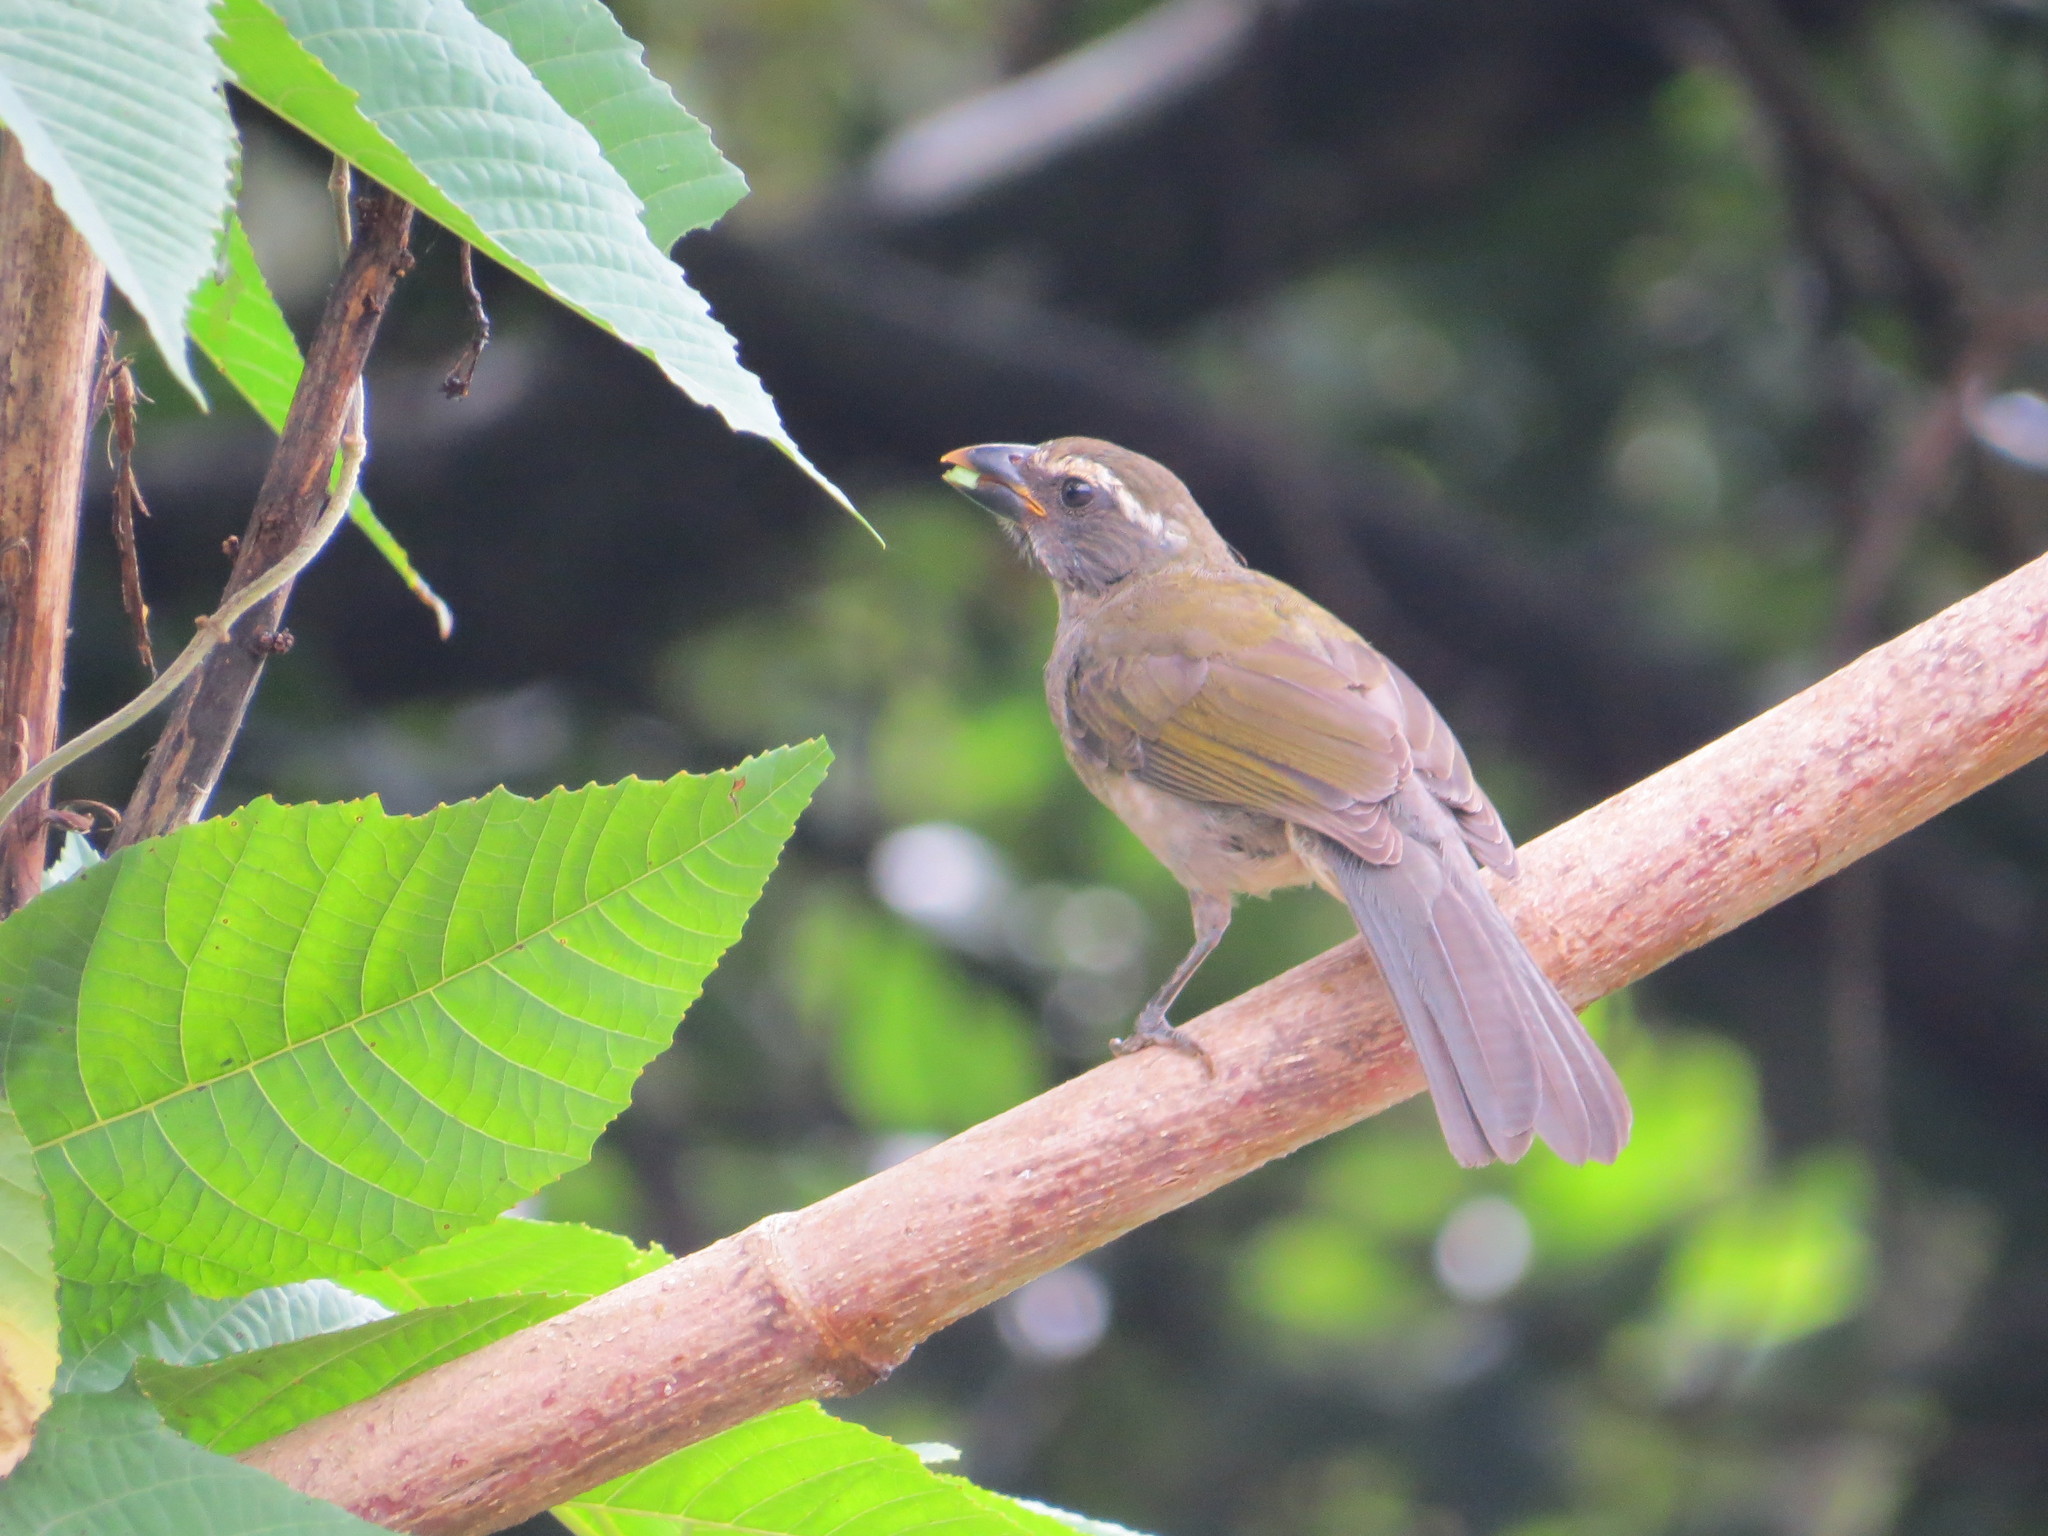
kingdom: Animalia
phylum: Chordata
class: Aves
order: Passeriformes
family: Thraupidae
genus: Saltator
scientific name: Saltator similis
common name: Green-winged saltator
